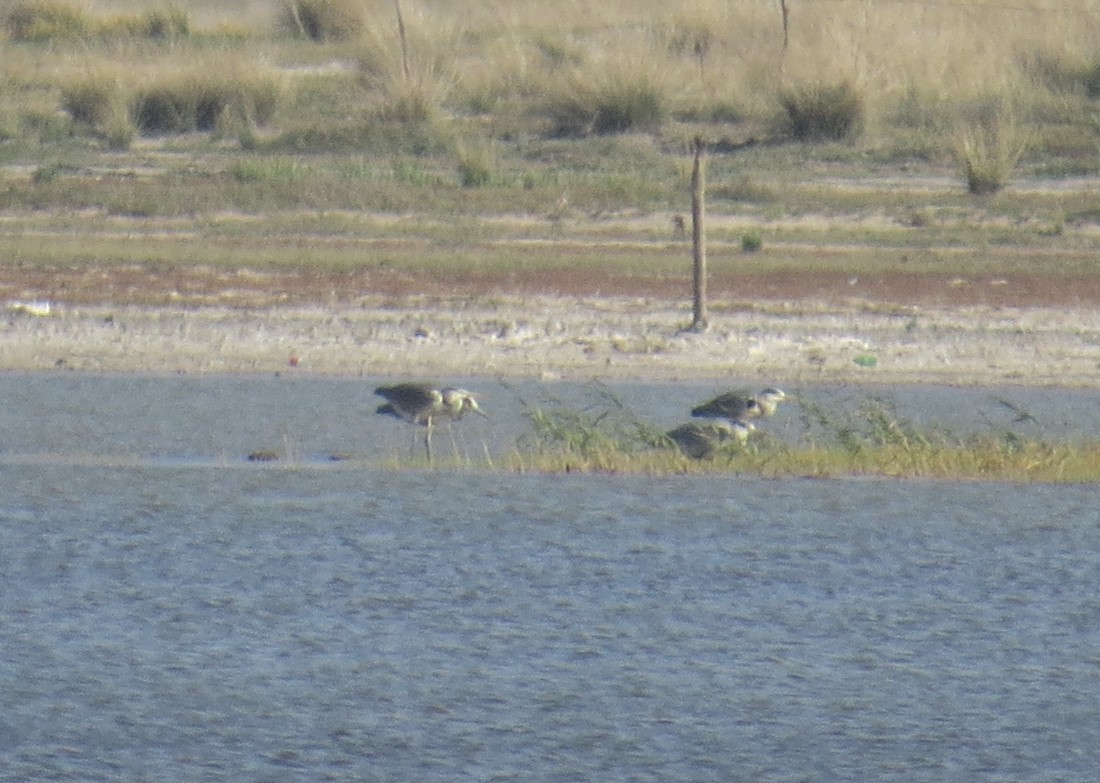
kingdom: Animalia
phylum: Chordata
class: Aves
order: Pelecaniformes
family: Ardeidae
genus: Ardea
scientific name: Ardea cinerea
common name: Grey heron
